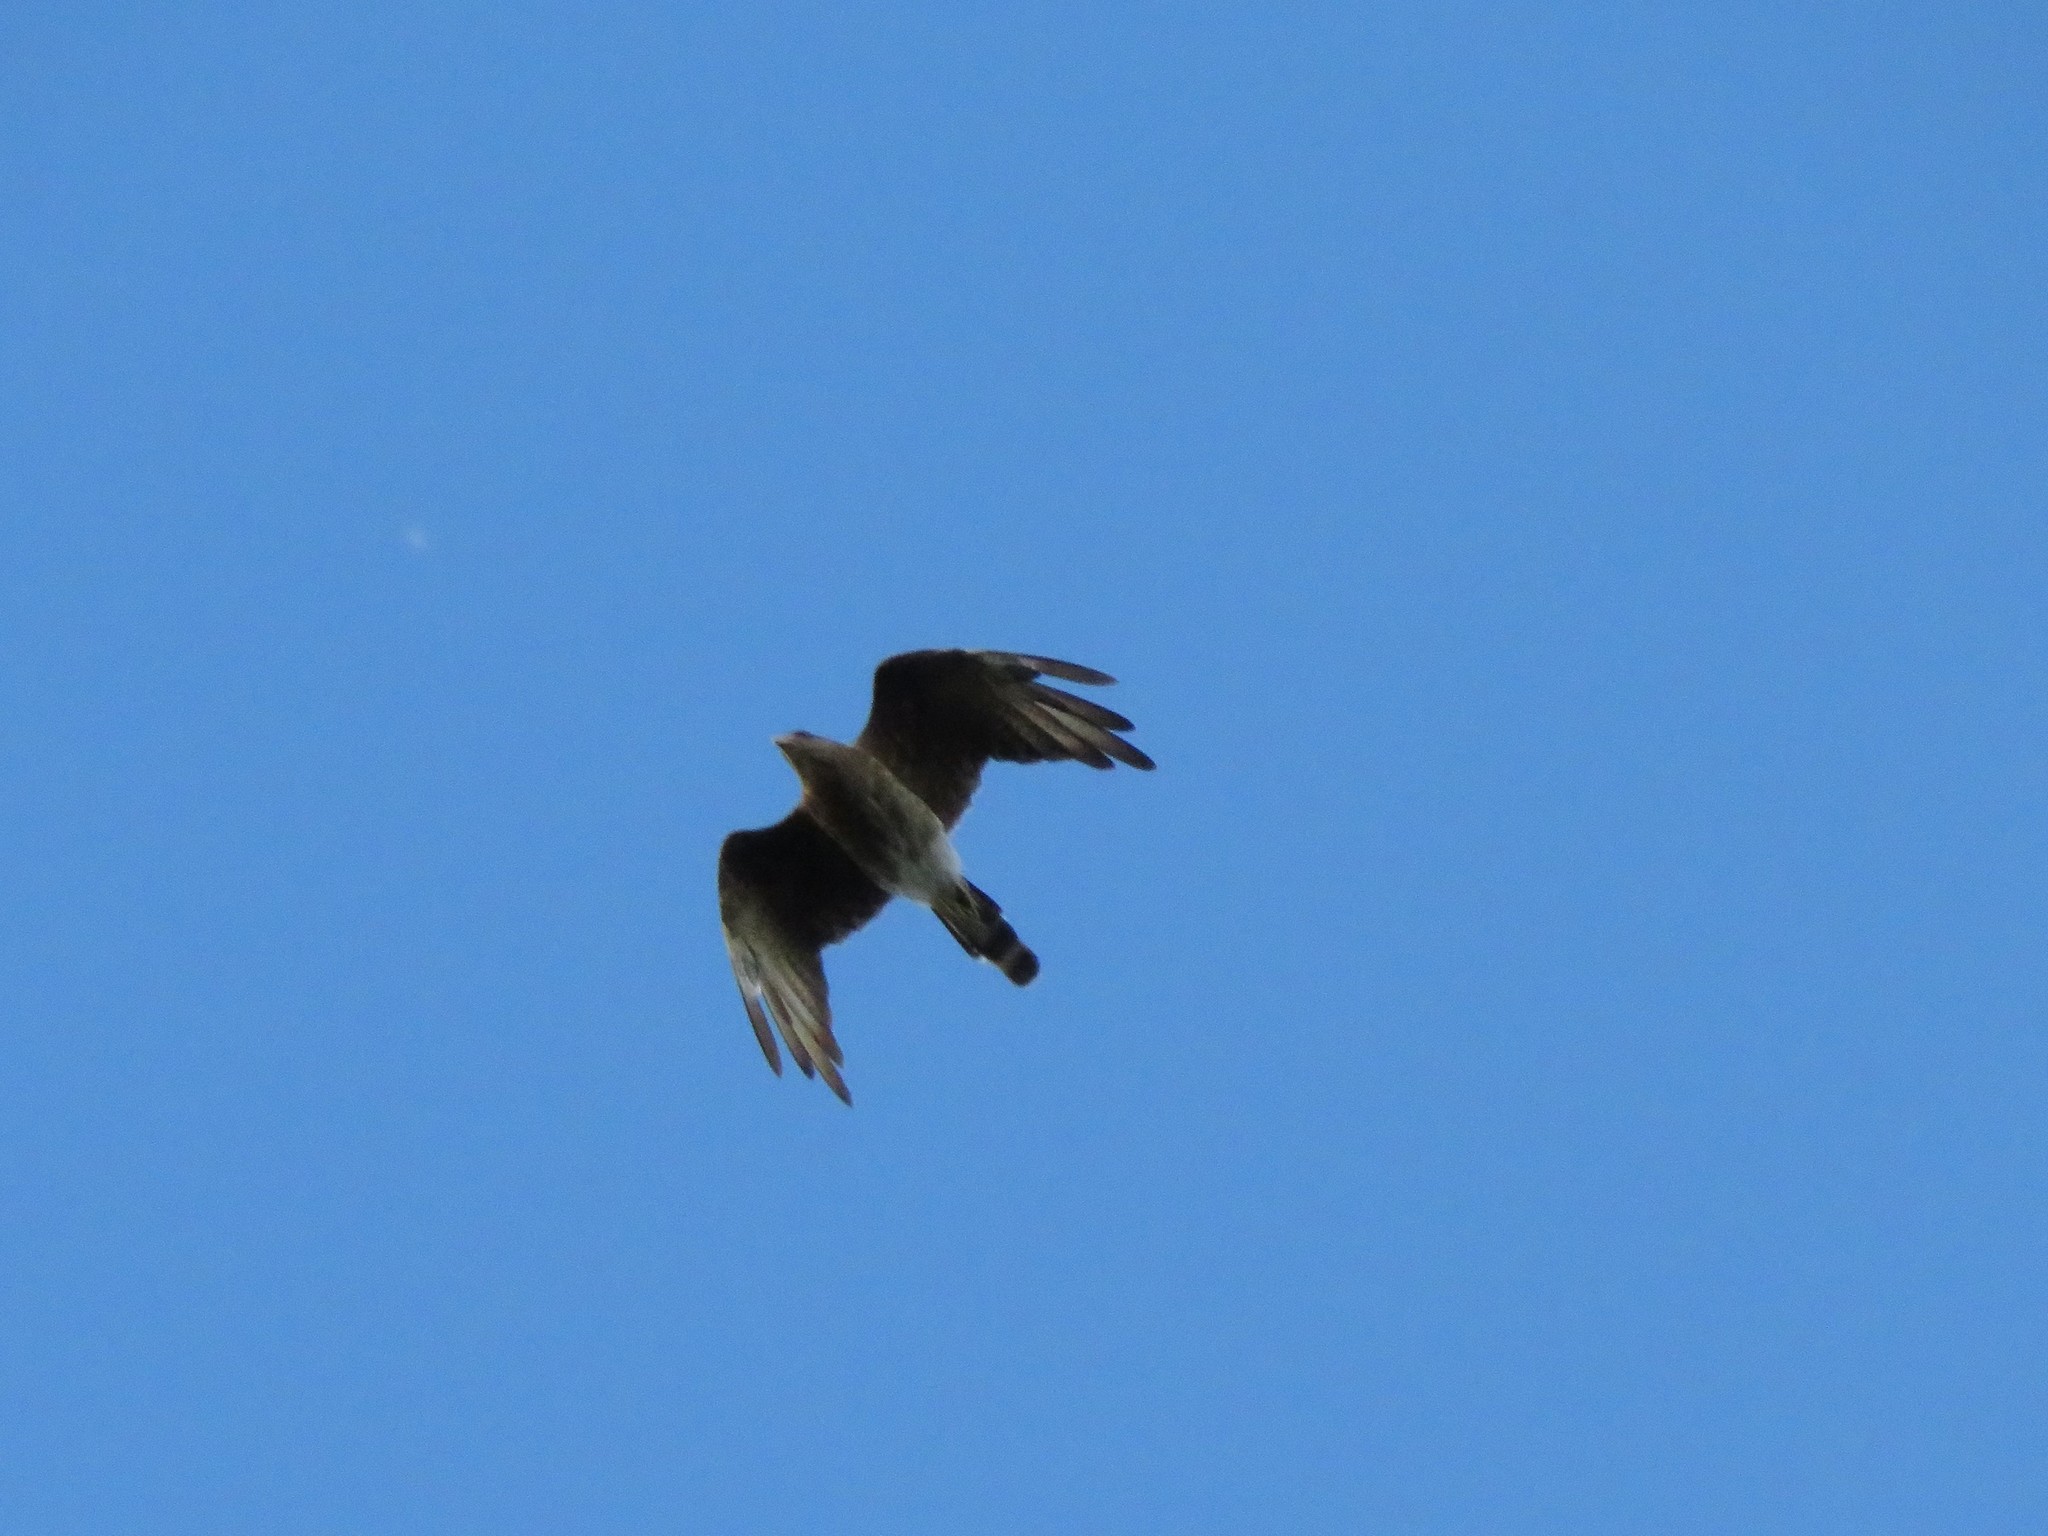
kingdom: Animalia
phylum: Chordata
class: Aves
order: Falconiformes
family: Falconidae
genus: Daptrius
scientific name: Daptrius
